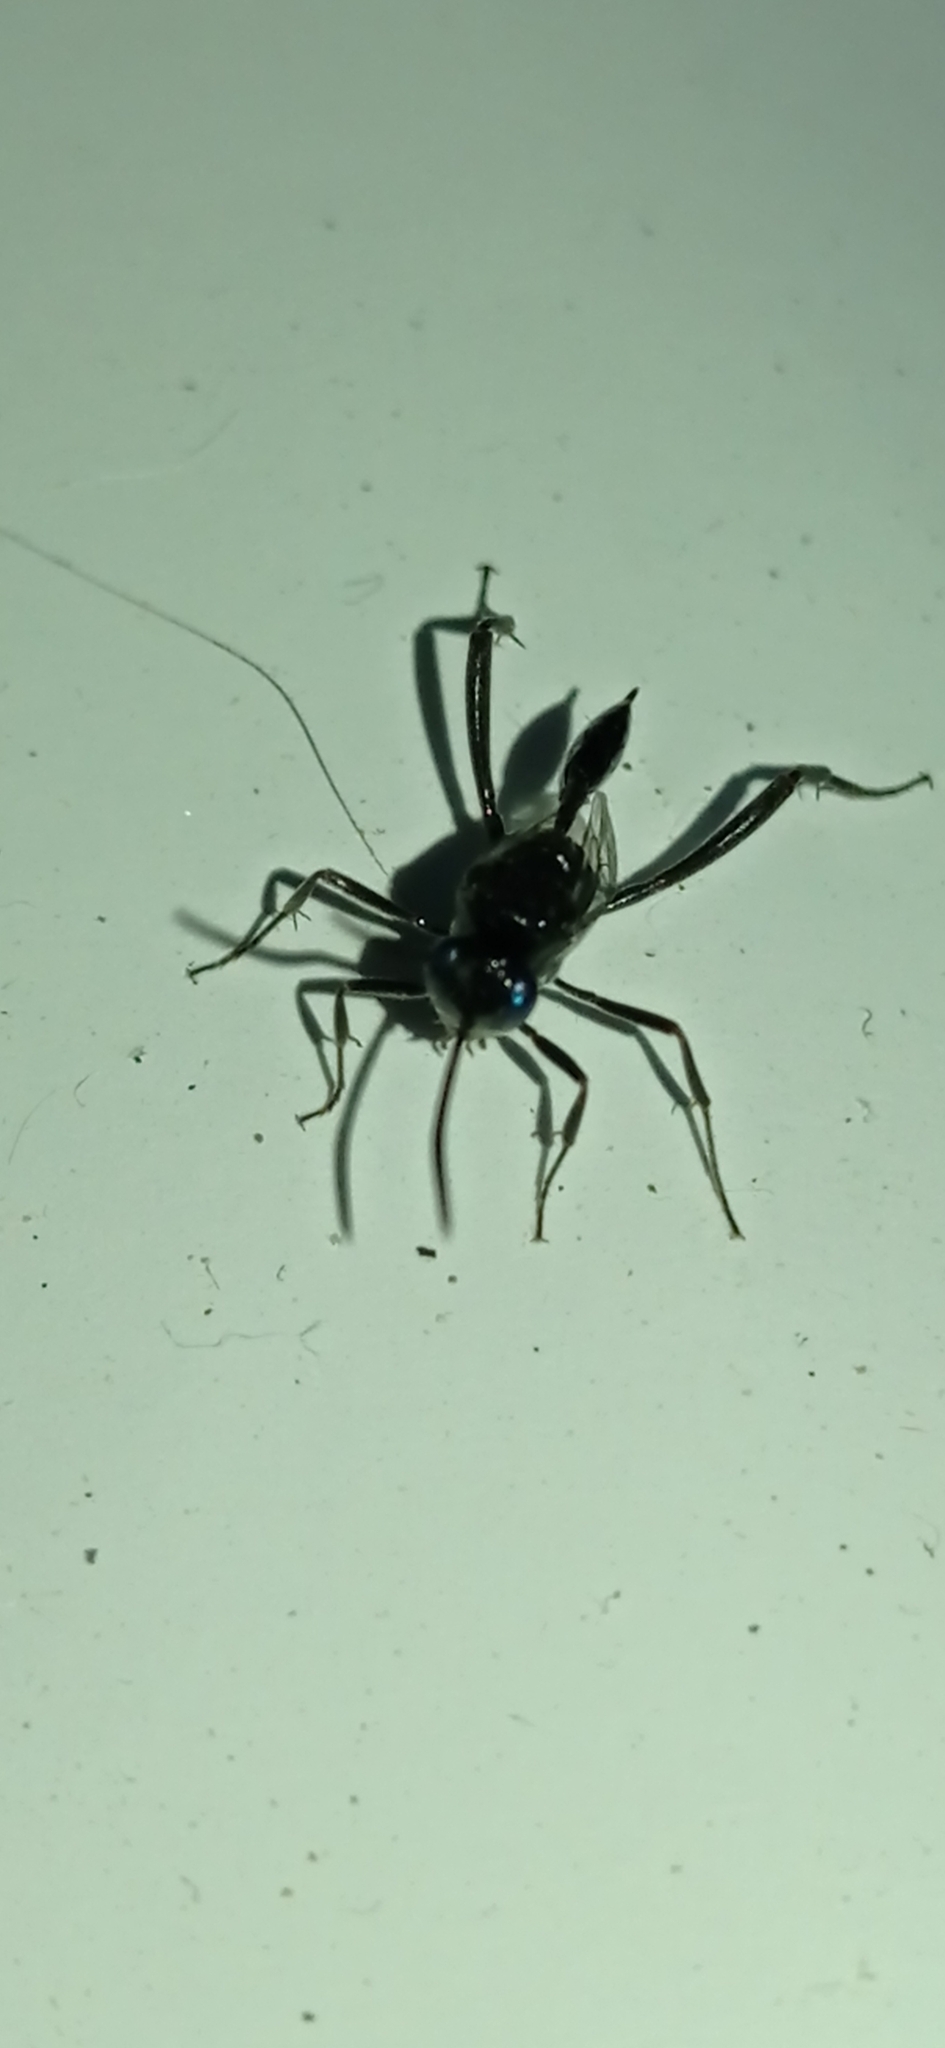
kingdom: Animalia
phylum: Arthropoda
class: Insecta
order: Hymenoptera
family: Evaniidae
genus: Evania
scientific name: Evania appendigaster
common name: Ensign wasp
